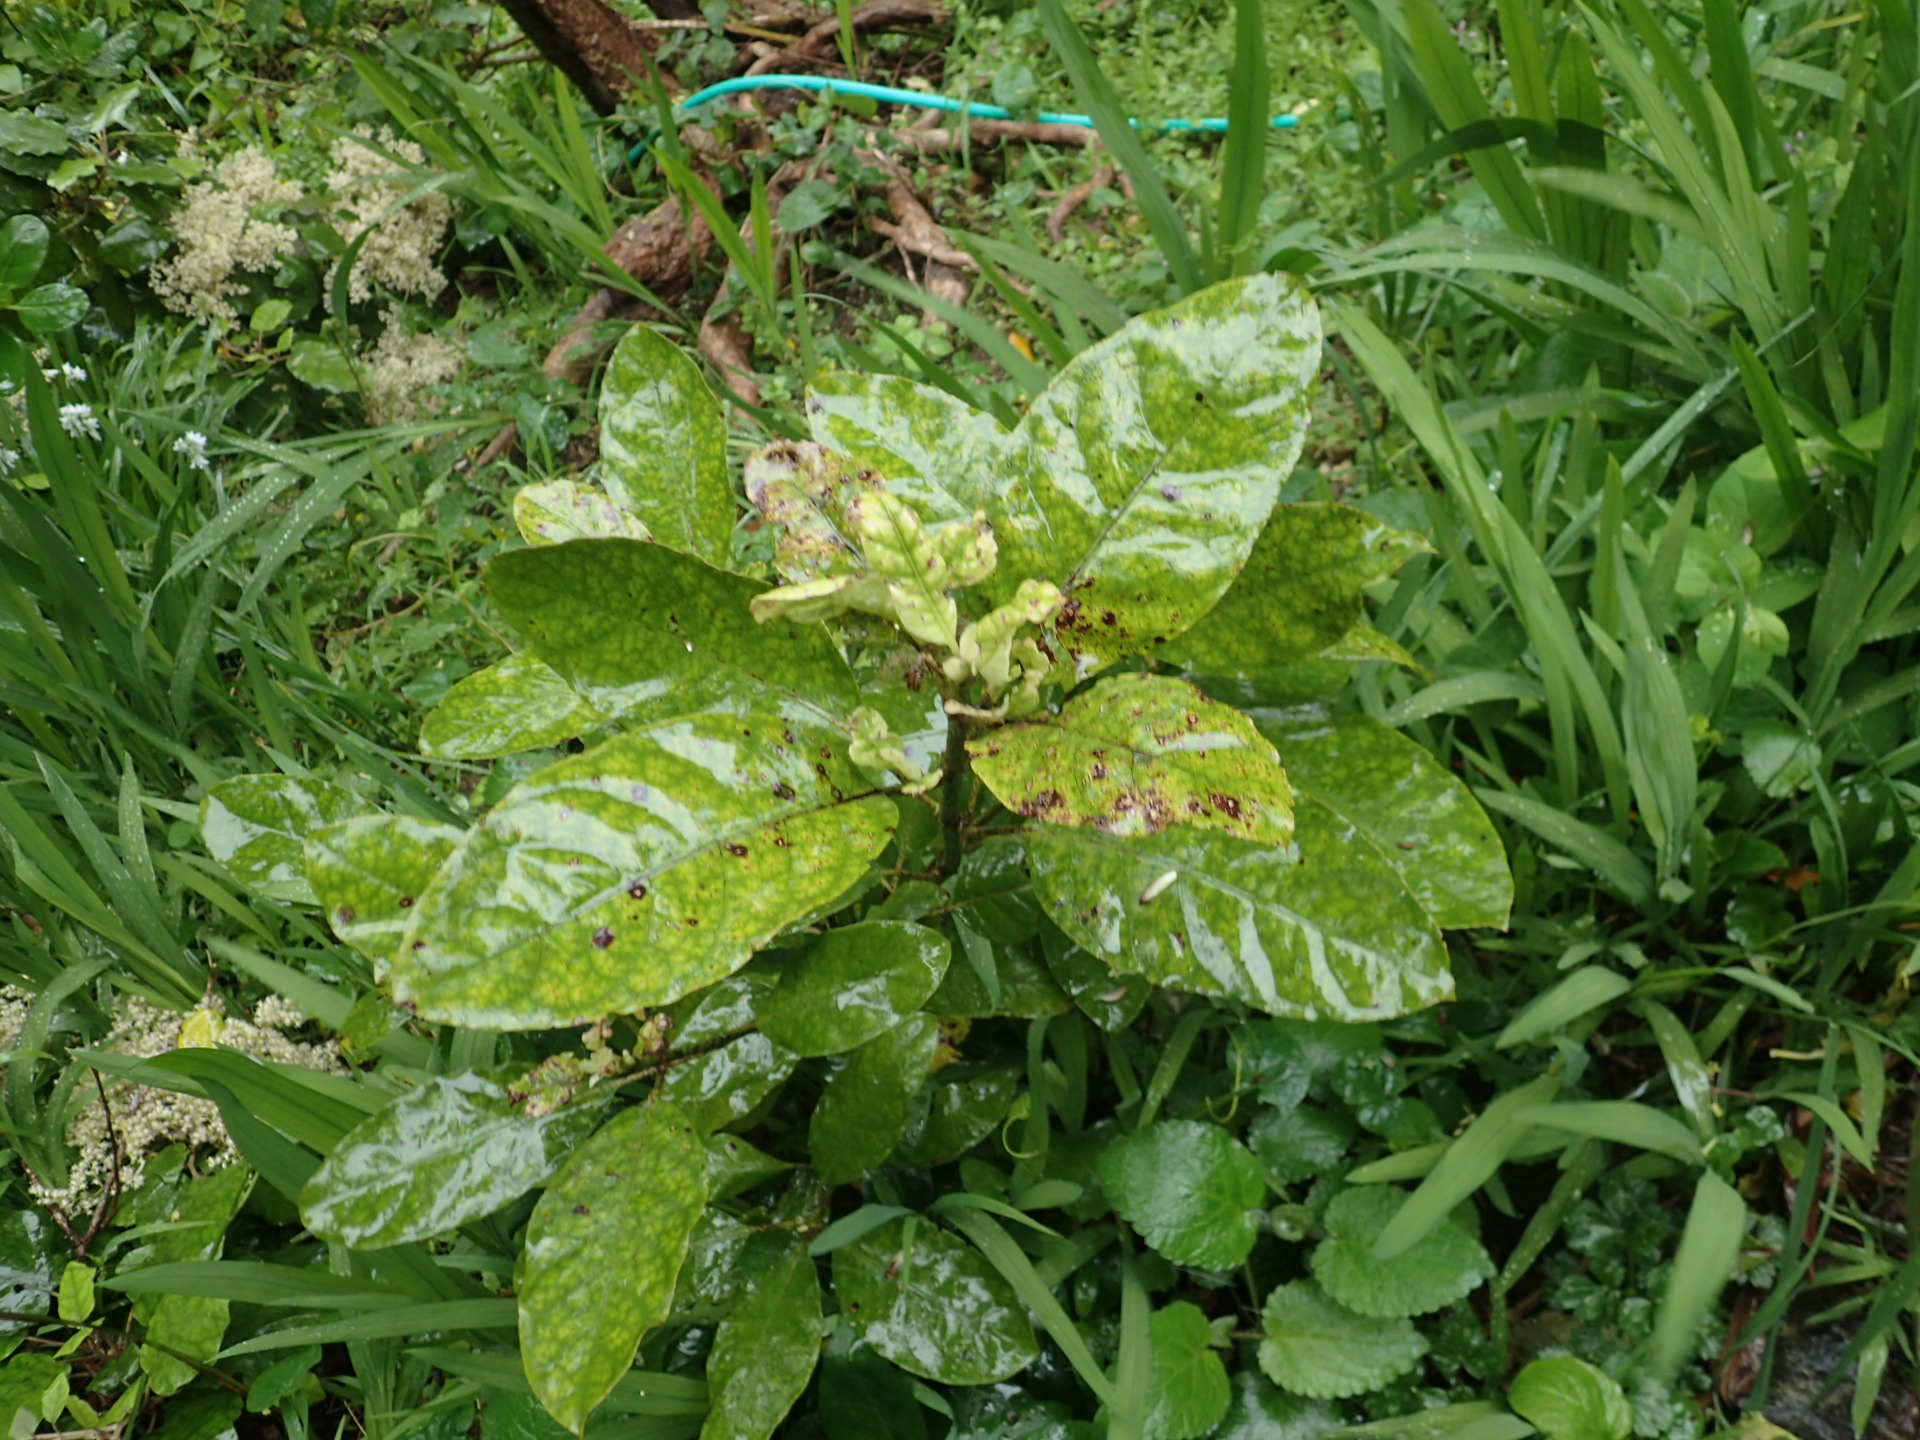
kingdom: Plantae
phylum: Tracheophyta
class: Magnoliopsida
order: Gentianales
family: Rubiaceae
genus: Coprosma
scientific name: Coprosma autumnalis
